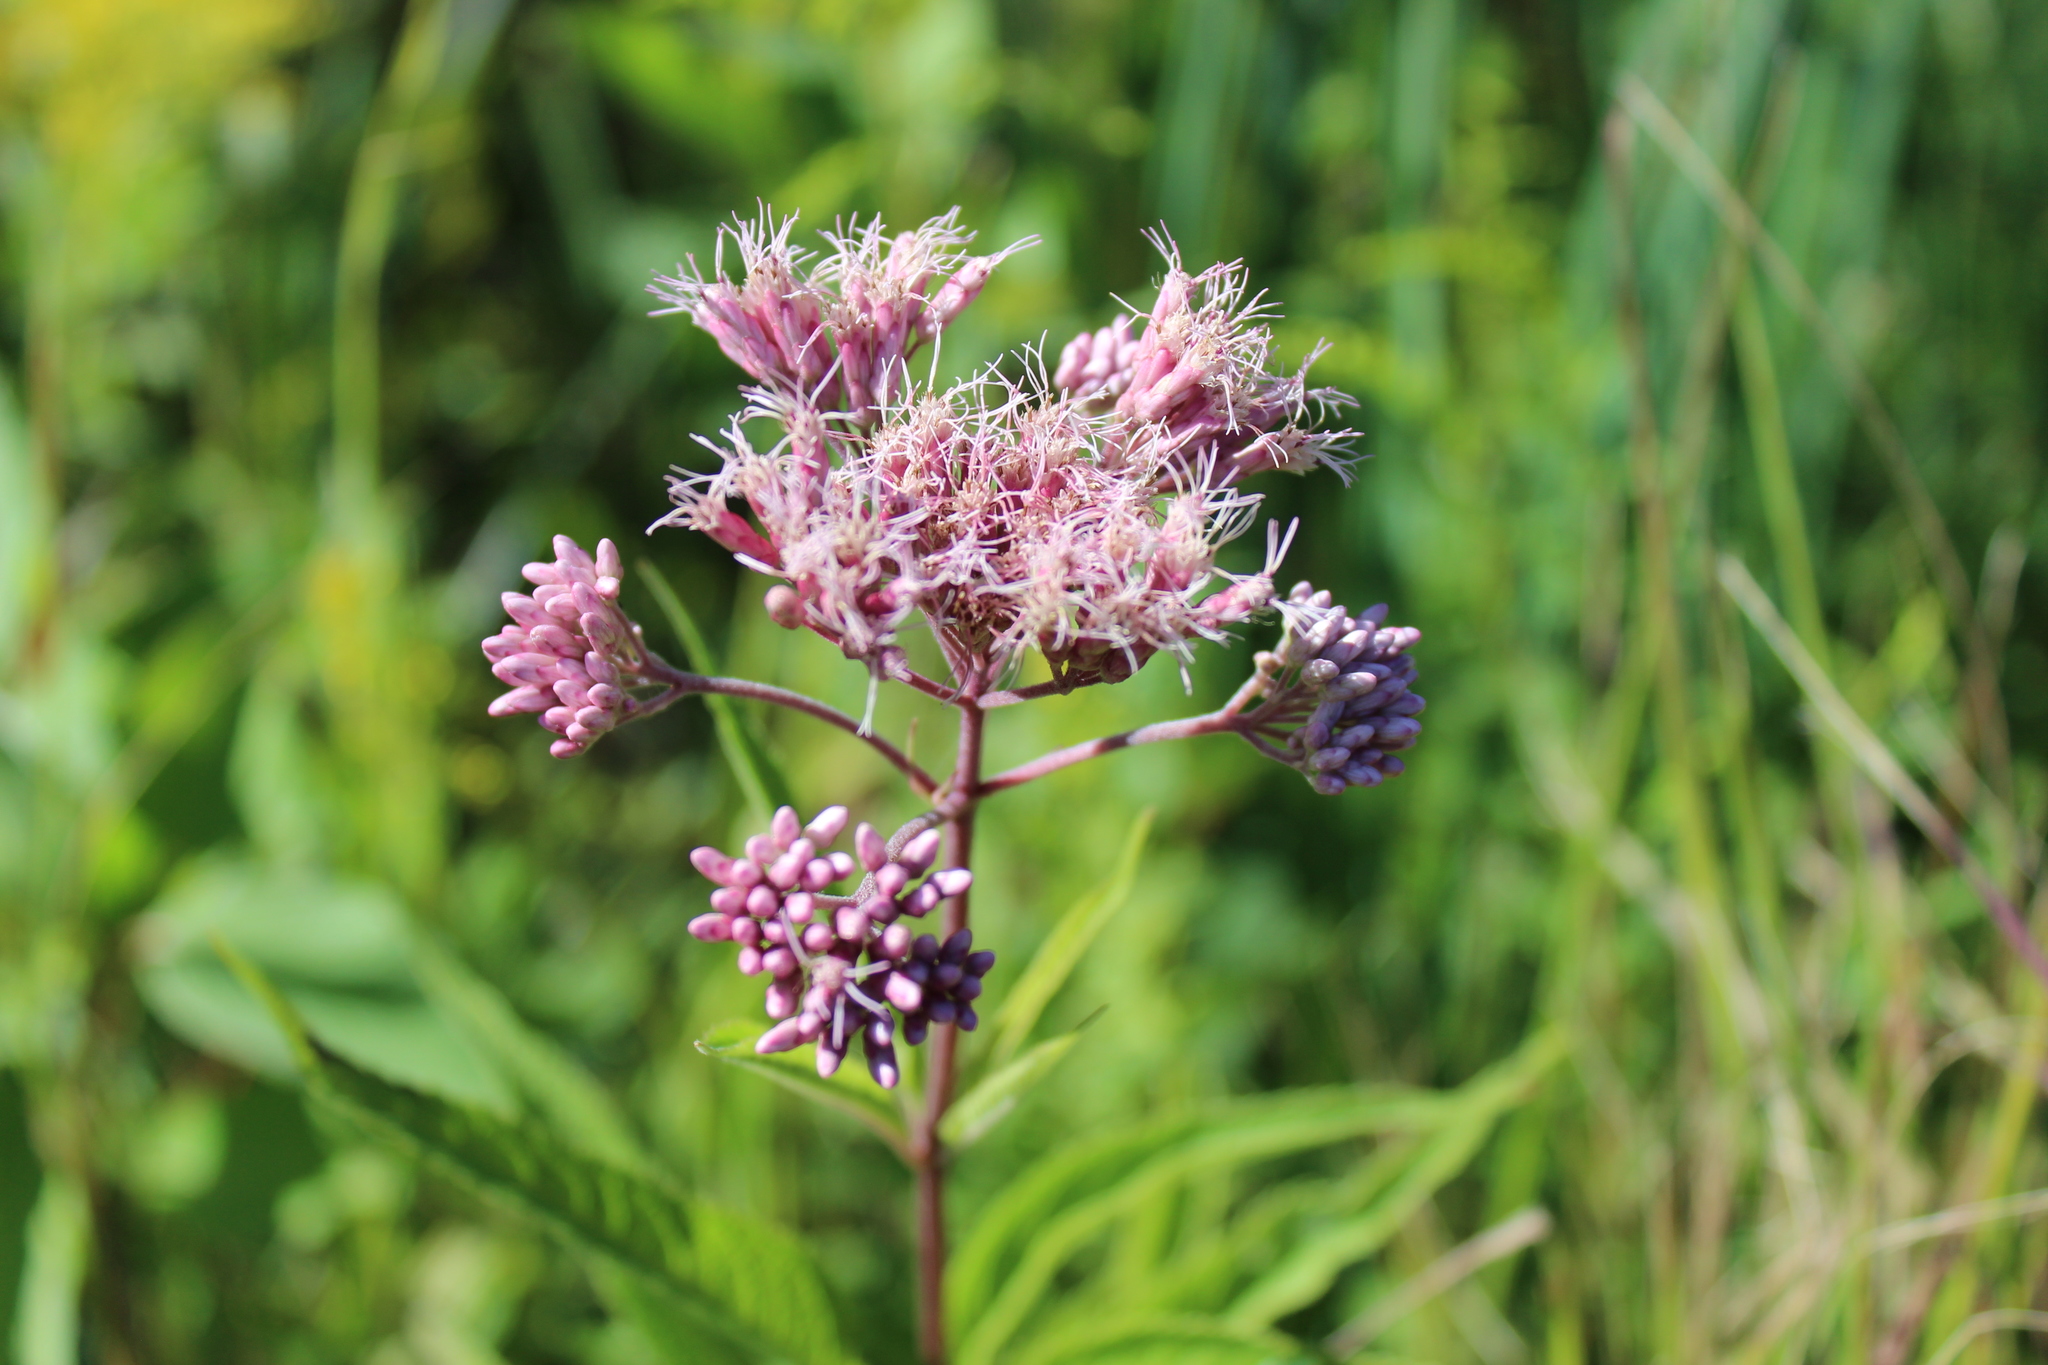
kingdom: Plantae
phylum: Tracheophyta
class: Magnoliopsida
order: Asterales
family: Asteraceae
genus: Eutrochium
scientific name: Eutrochium maculatum
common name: Spotted joe pye weed
